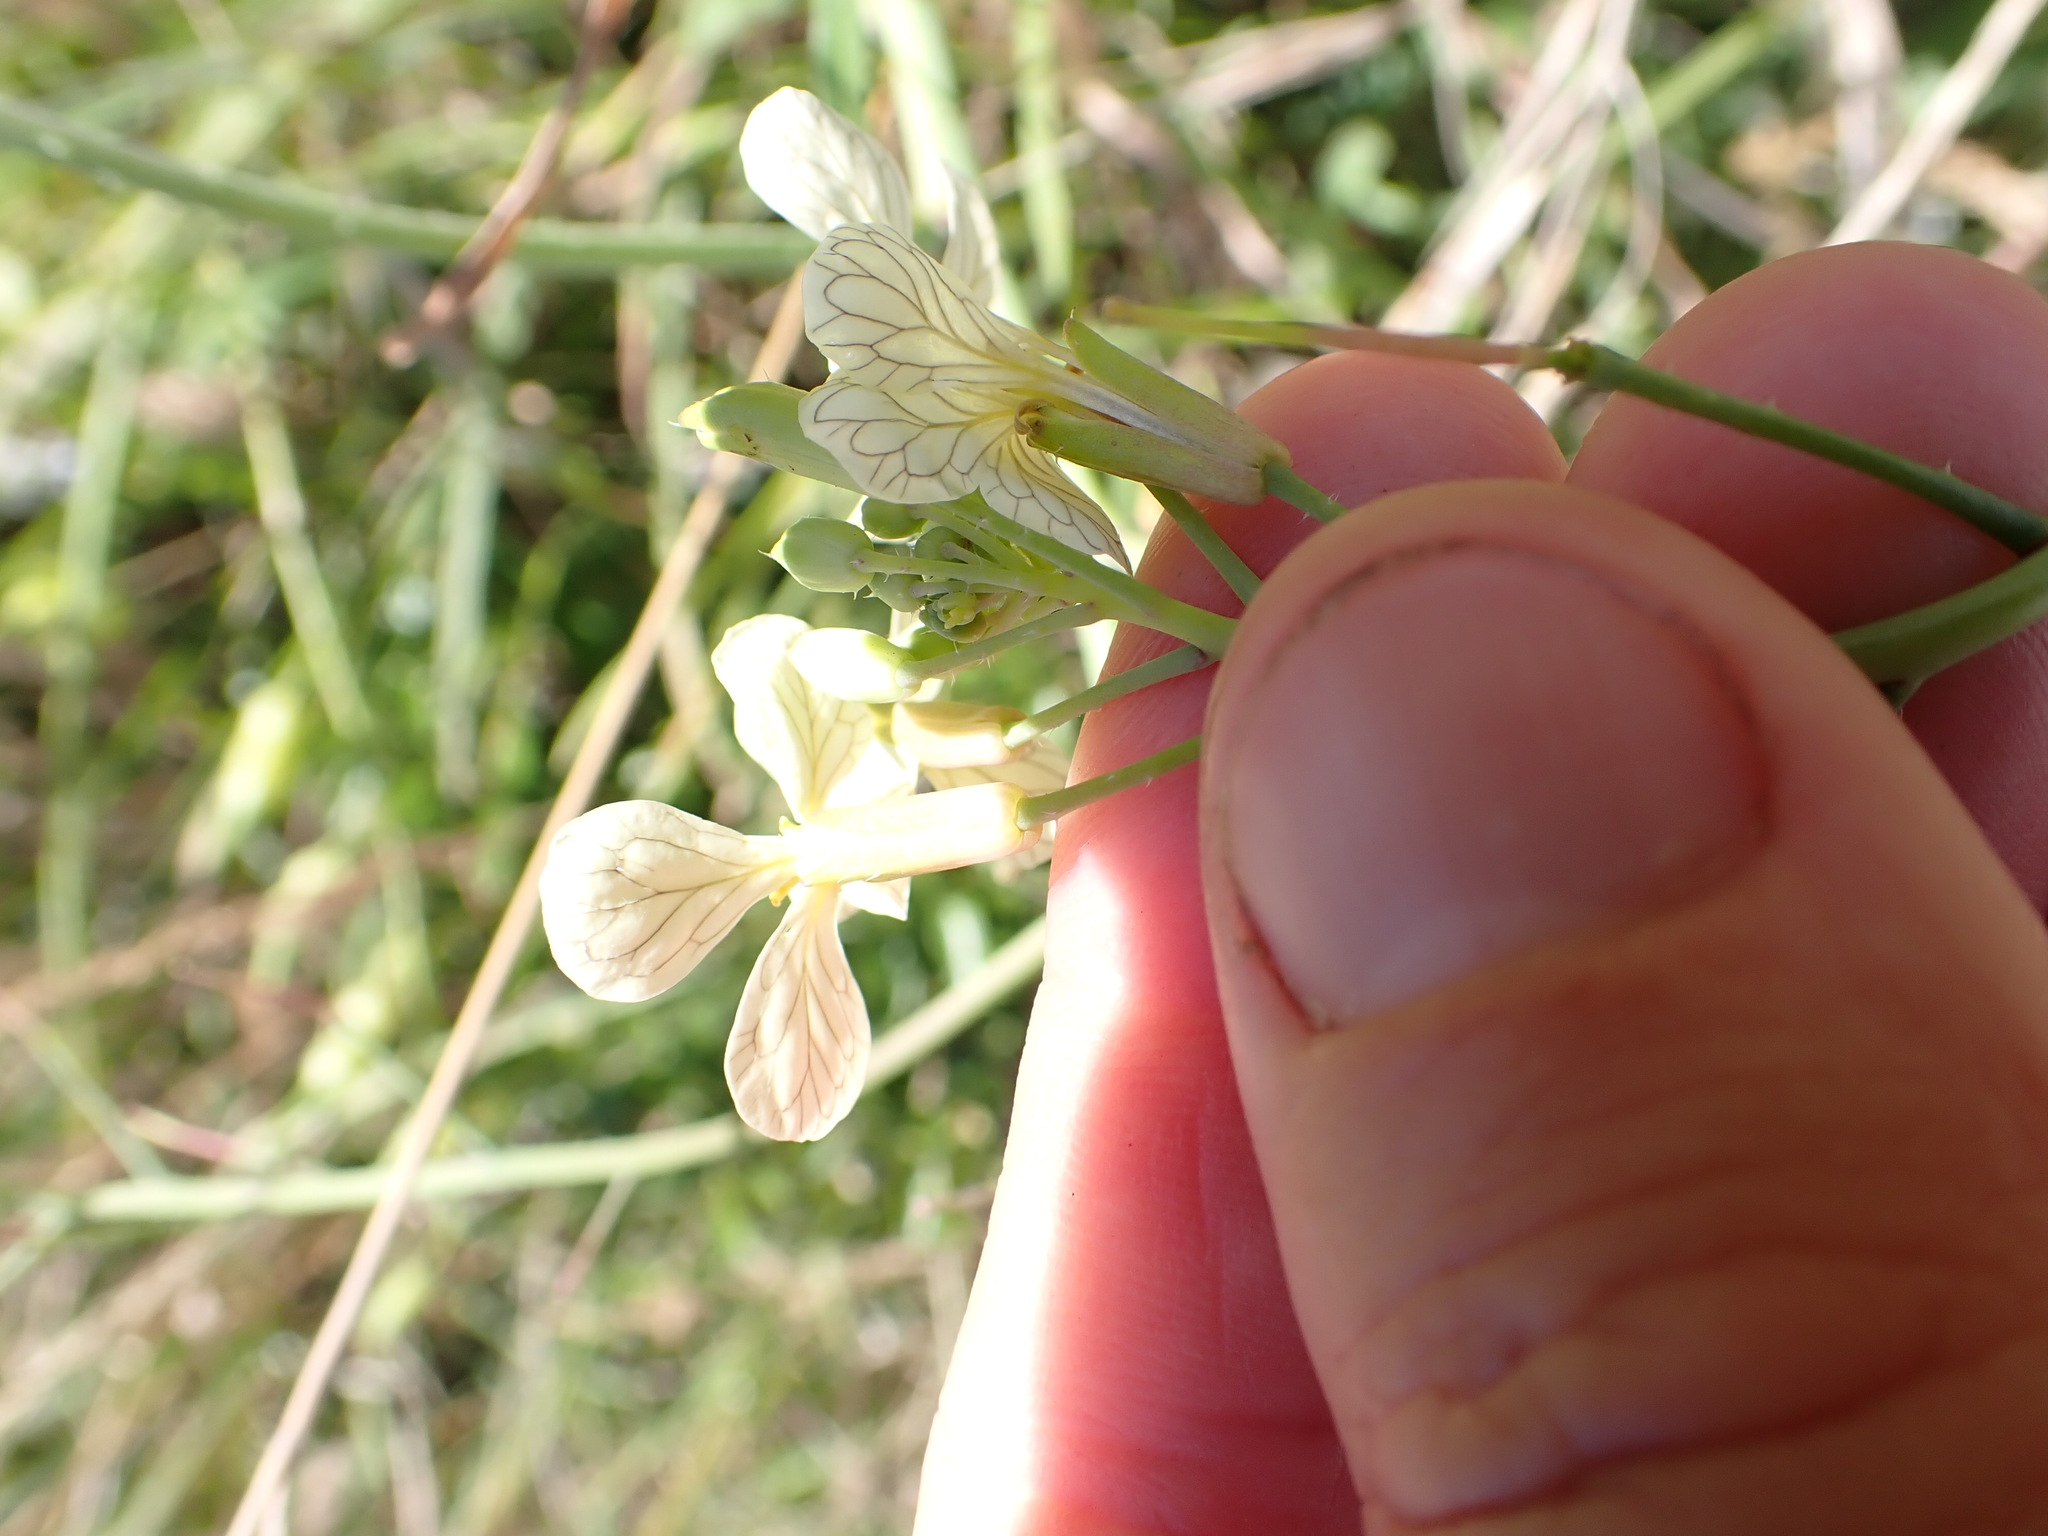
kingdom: Plantae
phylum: Tracheophyta
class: Magnoliopsida
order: Brassicales
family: Brassicaceae
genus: Raphanus
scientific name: Raphanus raphanistrum
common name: Wild radish
